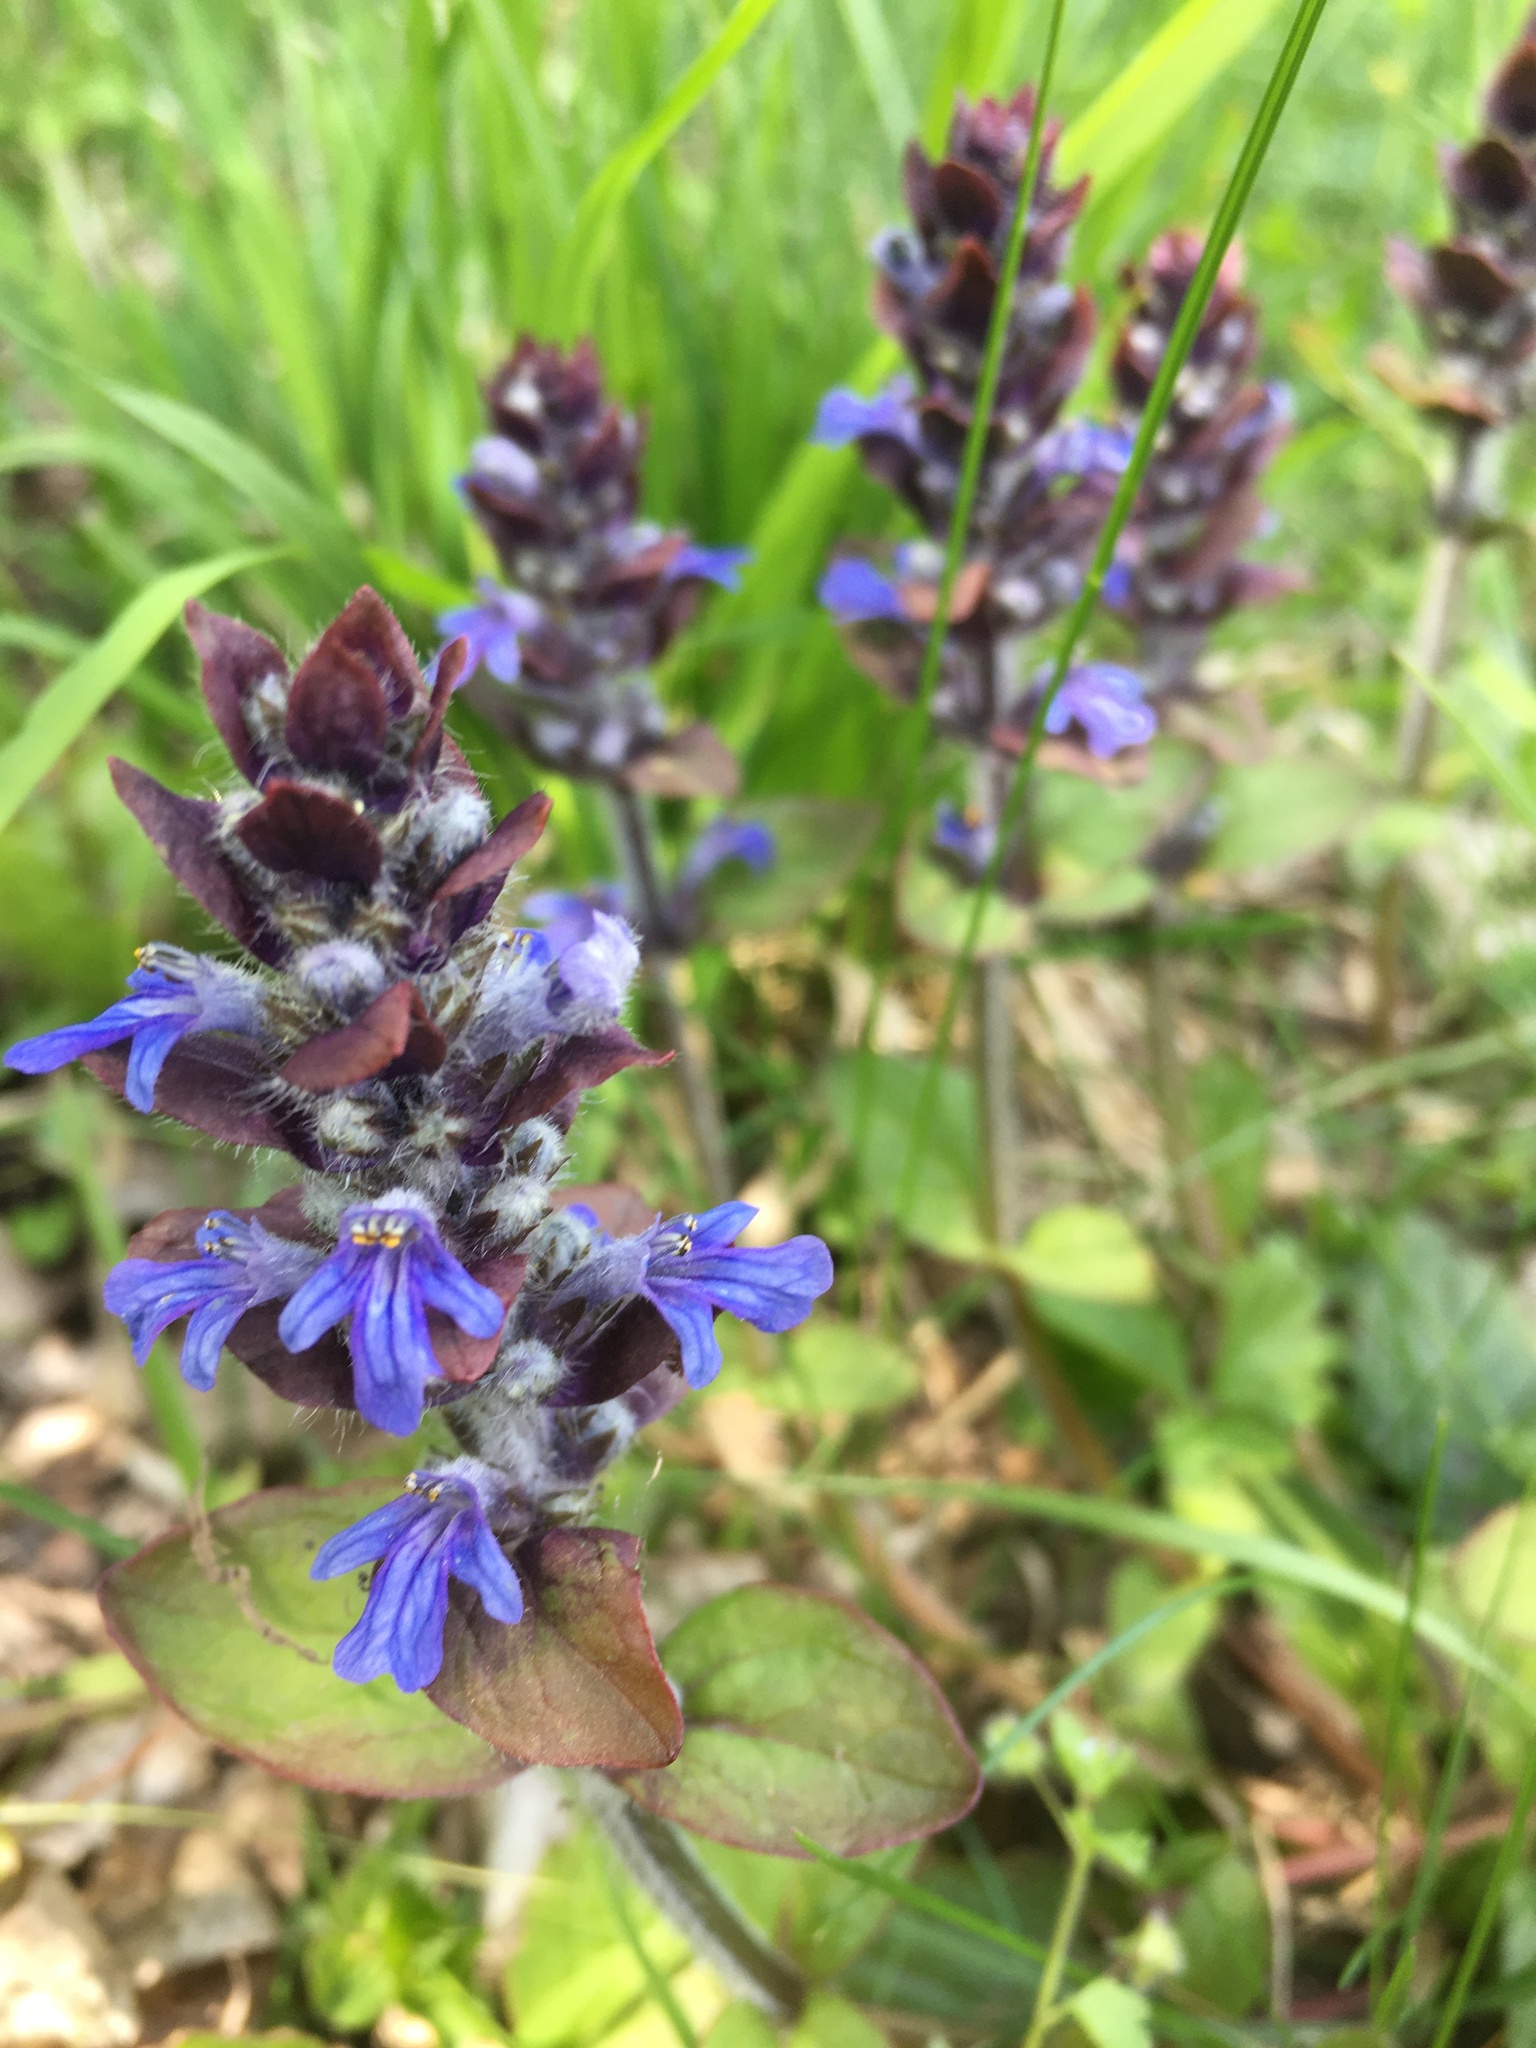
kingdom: Plantae
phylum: Tracheophyta
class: Magnoliopsida
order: Lamiales
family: Lamiaceae
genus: Ajuga
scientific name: Ajuga reptans
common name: Bugle
